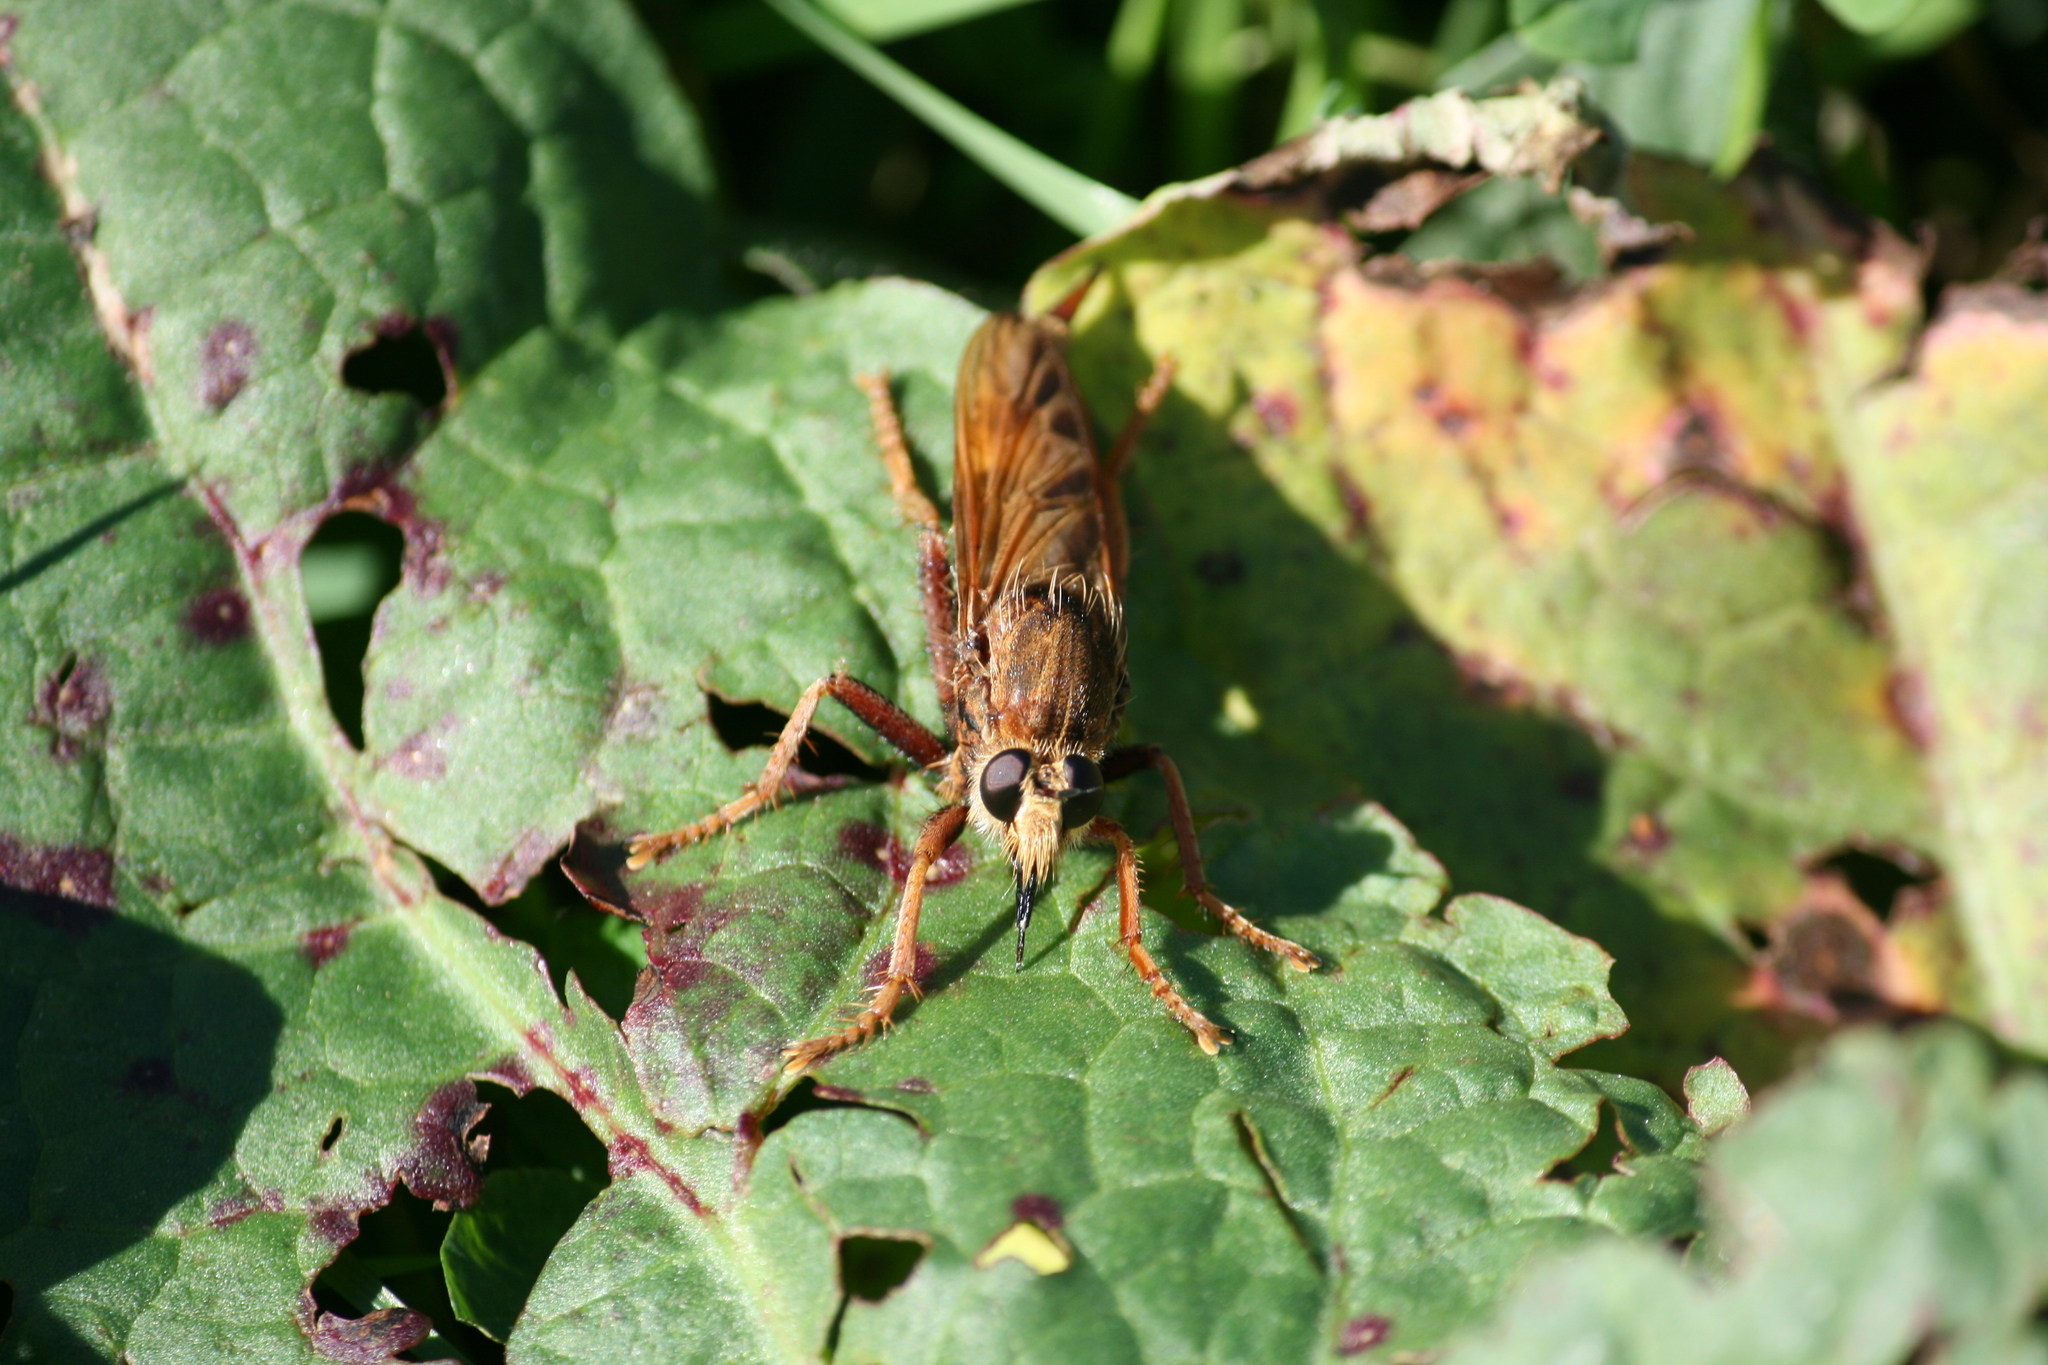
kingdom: Animalia
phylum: Arthropoda
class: Insecta
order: Diptera
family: Asilidae
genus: Asilus
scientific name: Asilus crabroniformis
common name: Hornet robberfly
